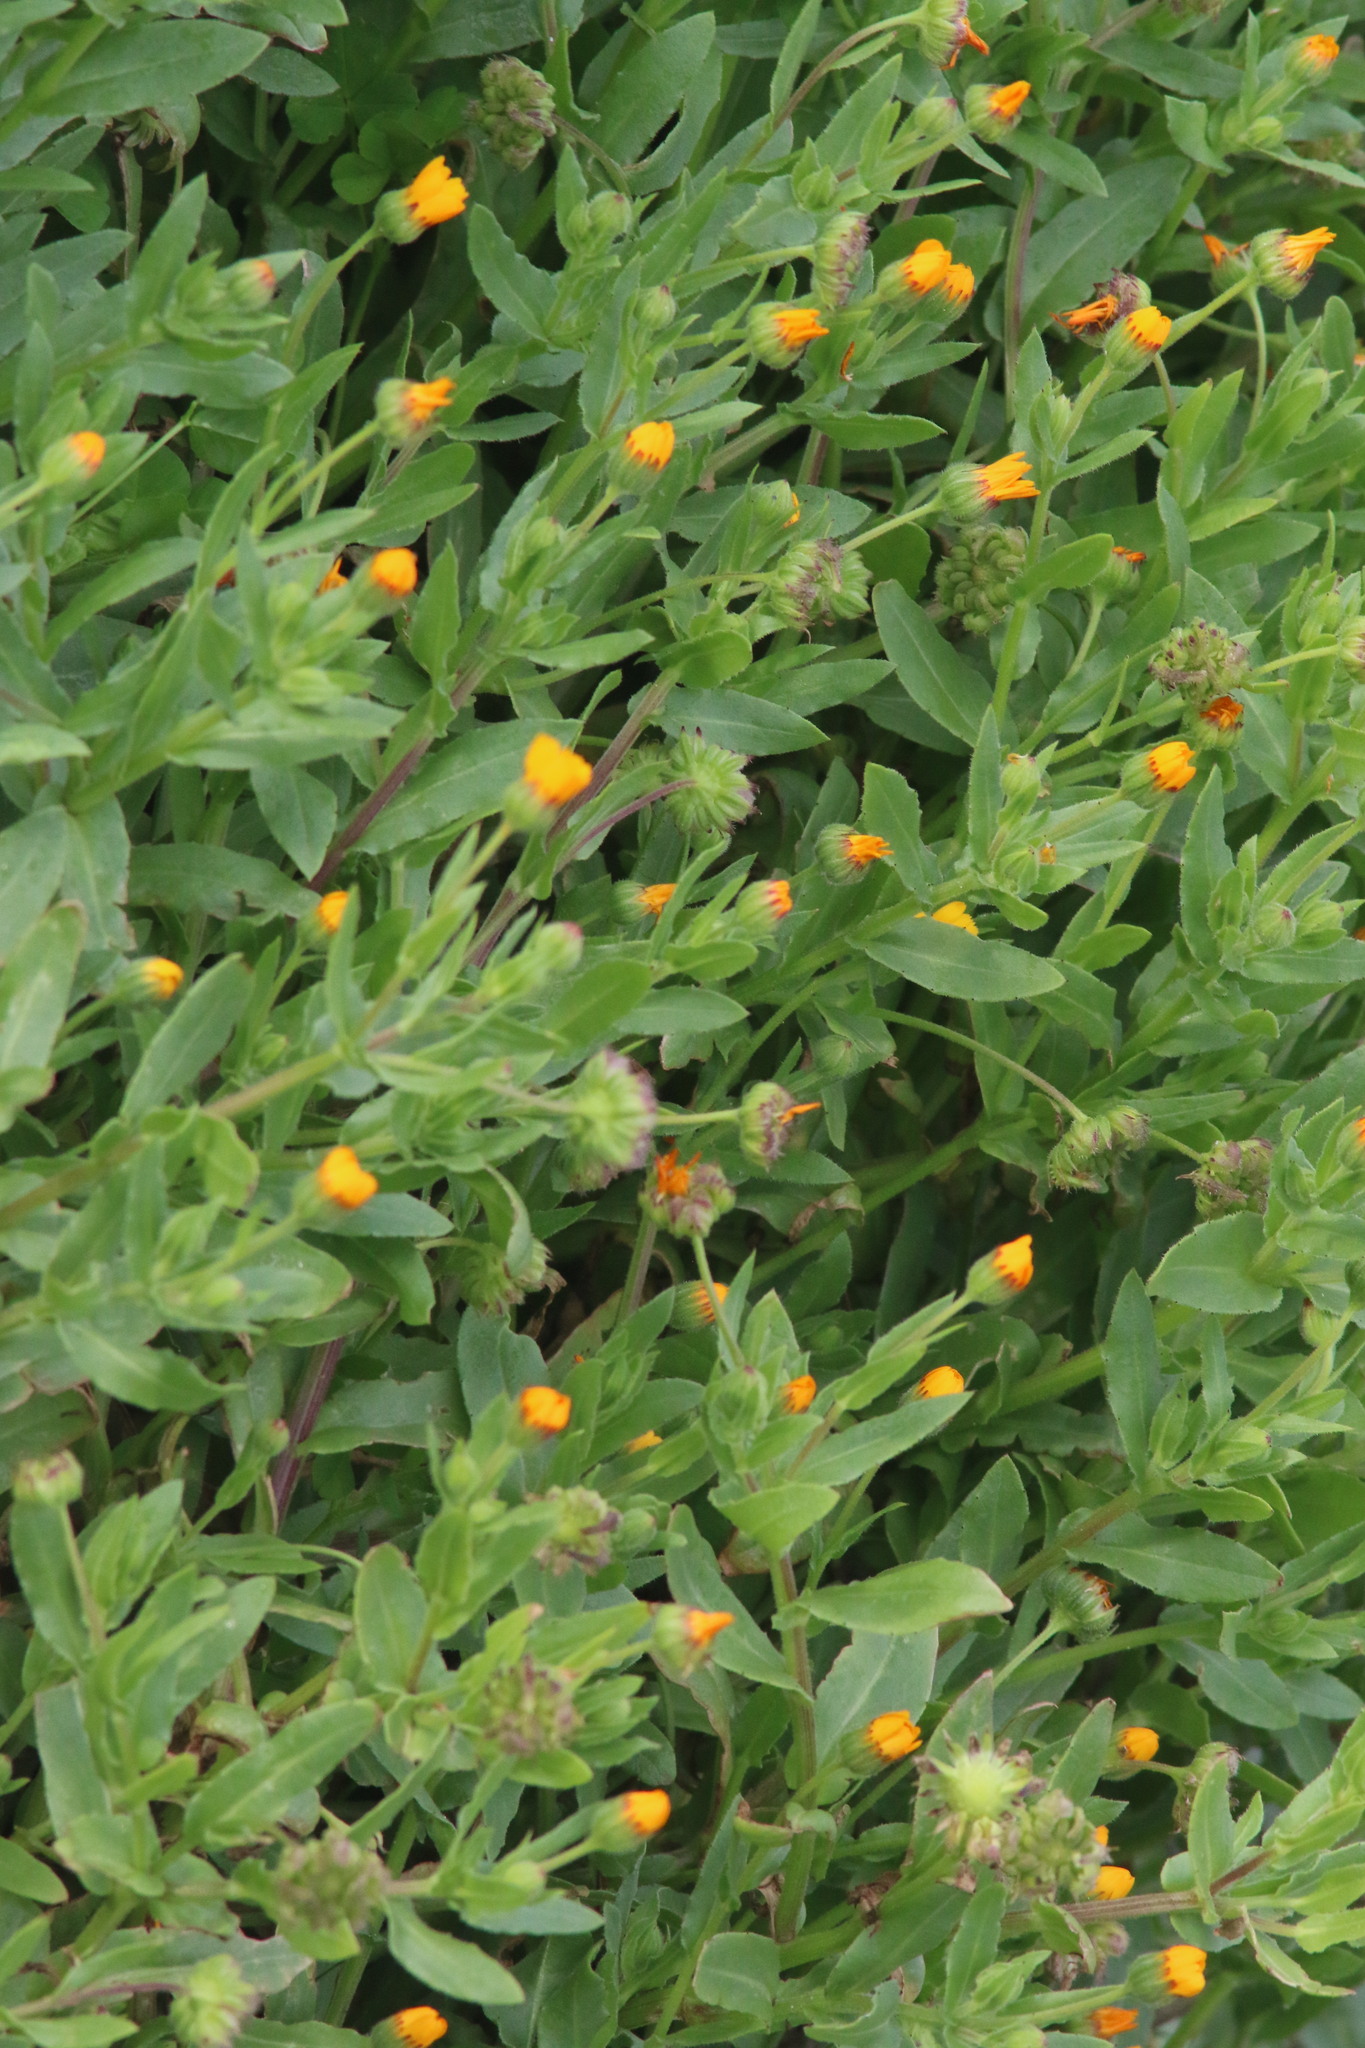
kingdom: Plantae
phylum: Tracheophyta
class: Magnoliopsida
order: Asterales
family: Asteraceae
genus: Calendula
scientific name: Calendula arvensis
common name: Field marigold
